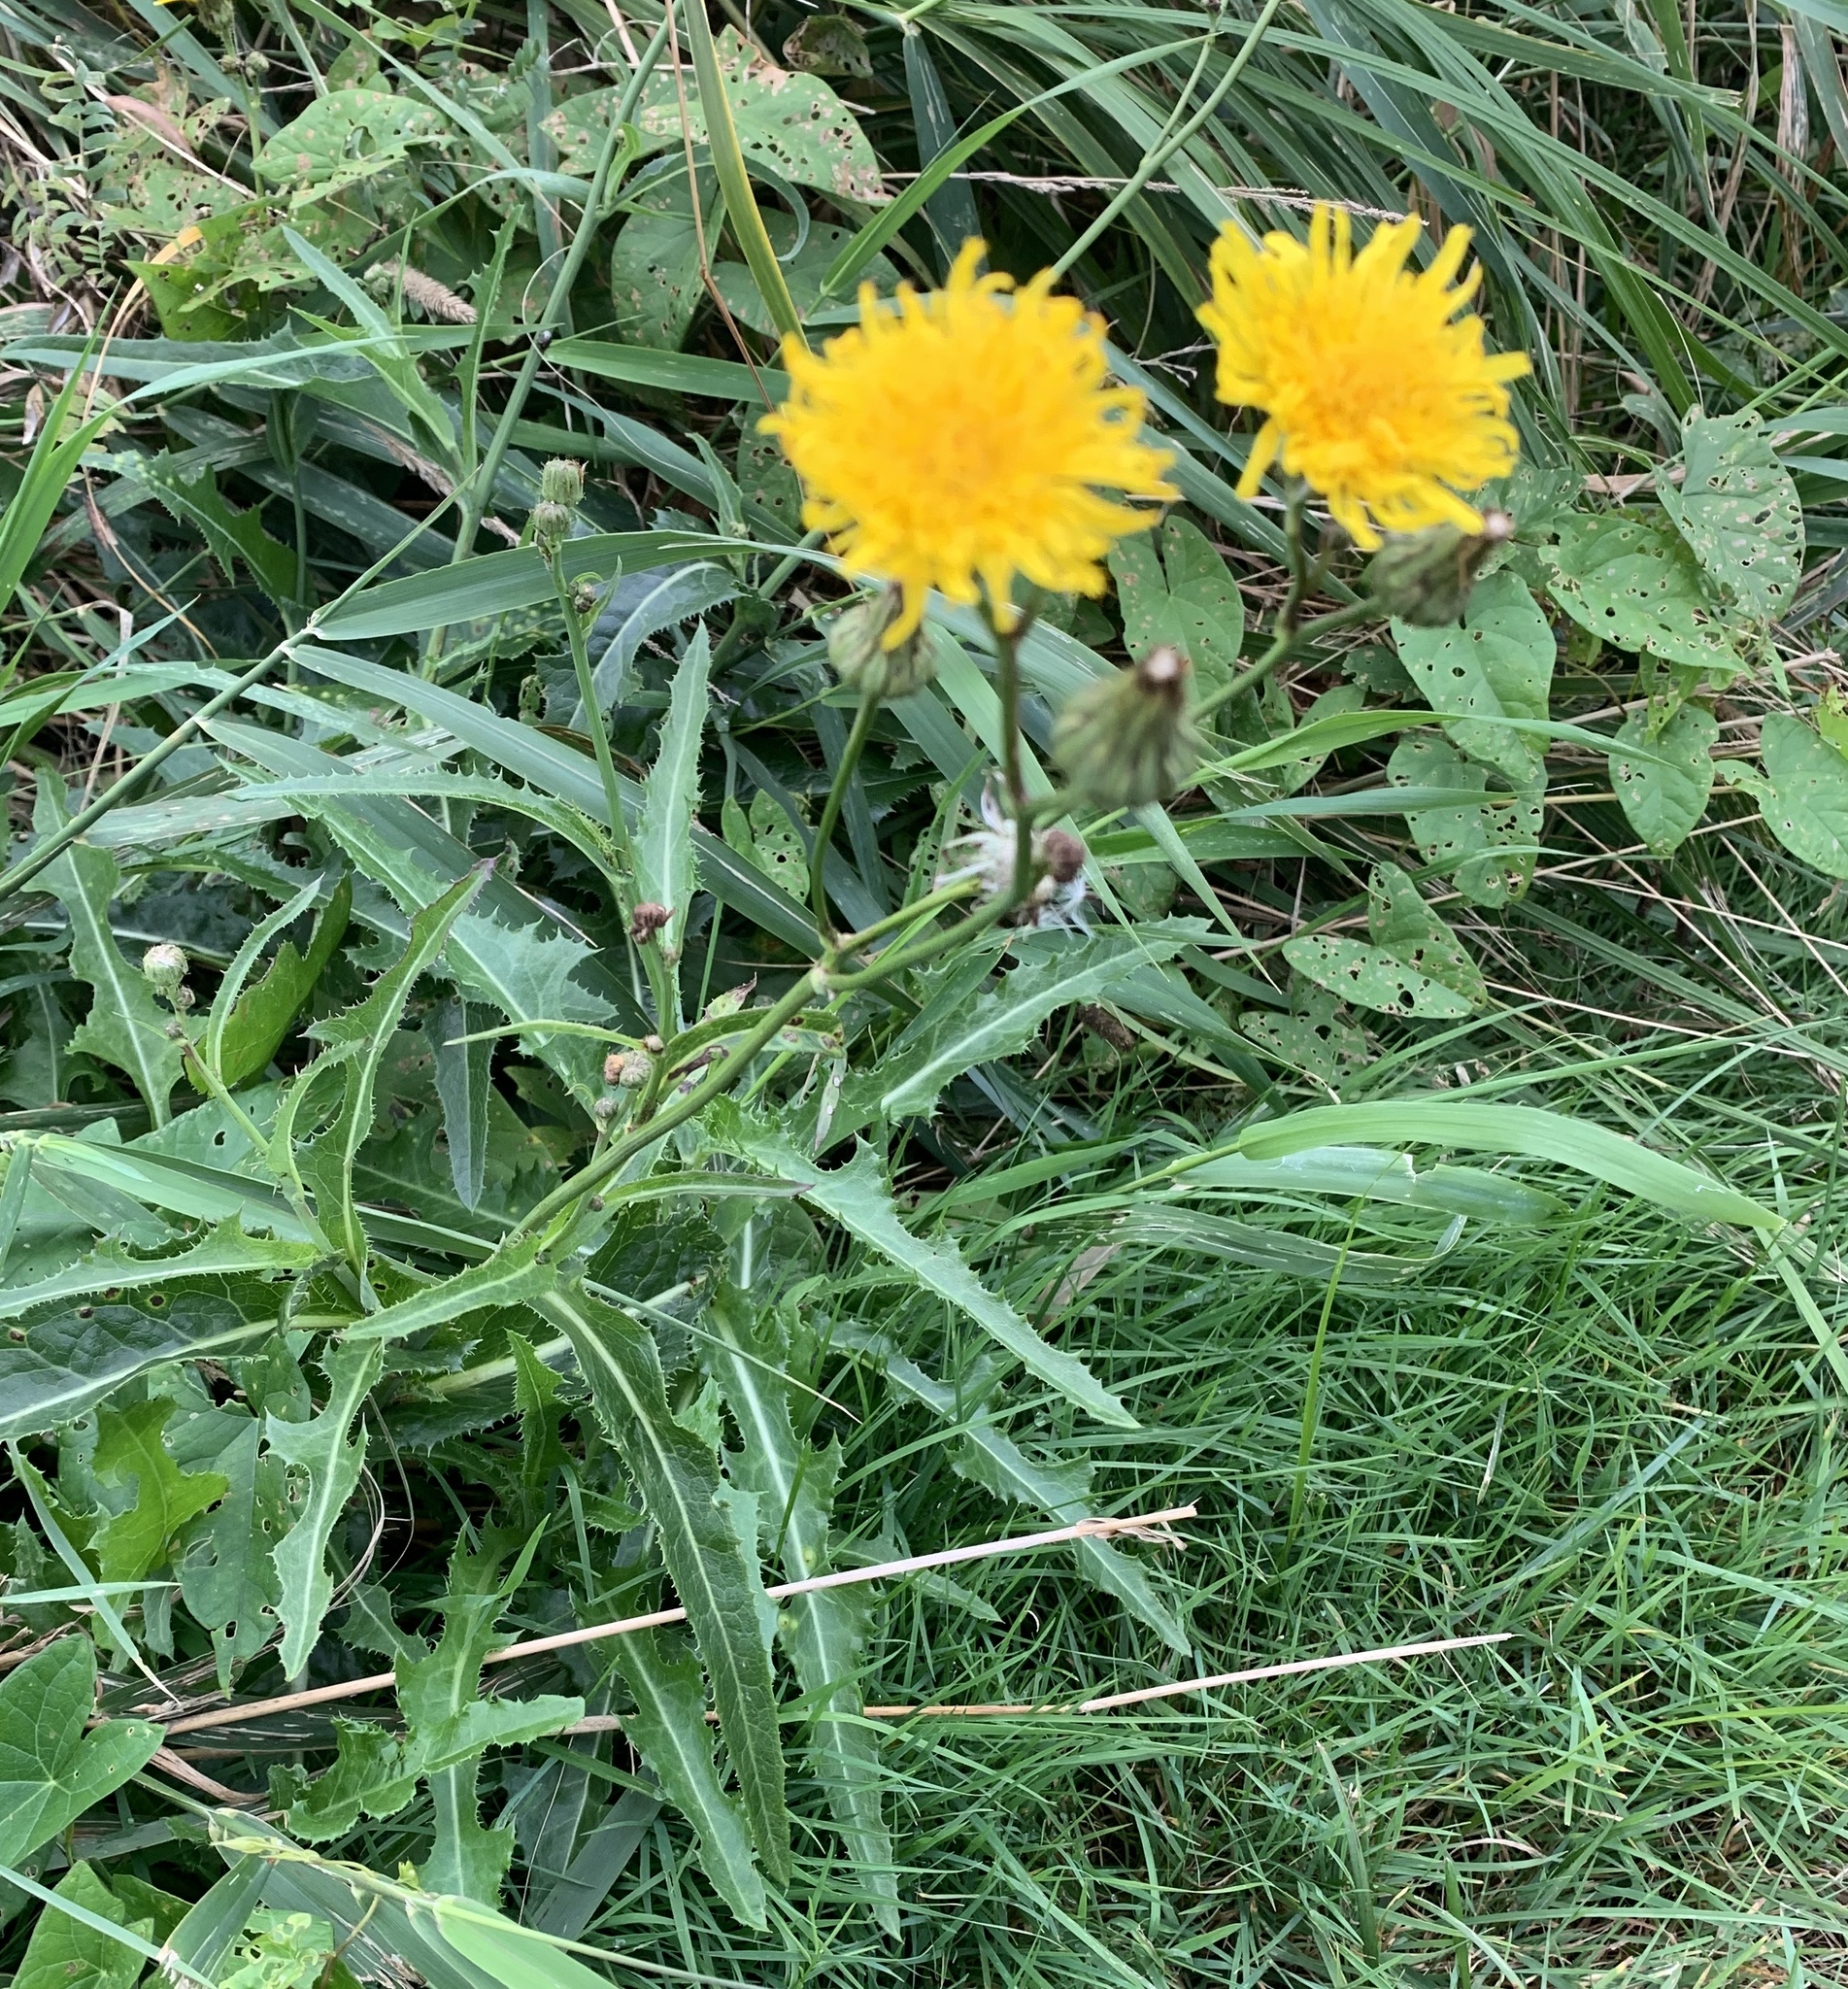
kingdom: Plantae
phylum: Tracheophyta
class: Magnoliopsida
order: Asterales
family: Asteraceae
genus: Sonchus
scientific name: Sonchus arvensis
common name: Perennial sow-thistle
